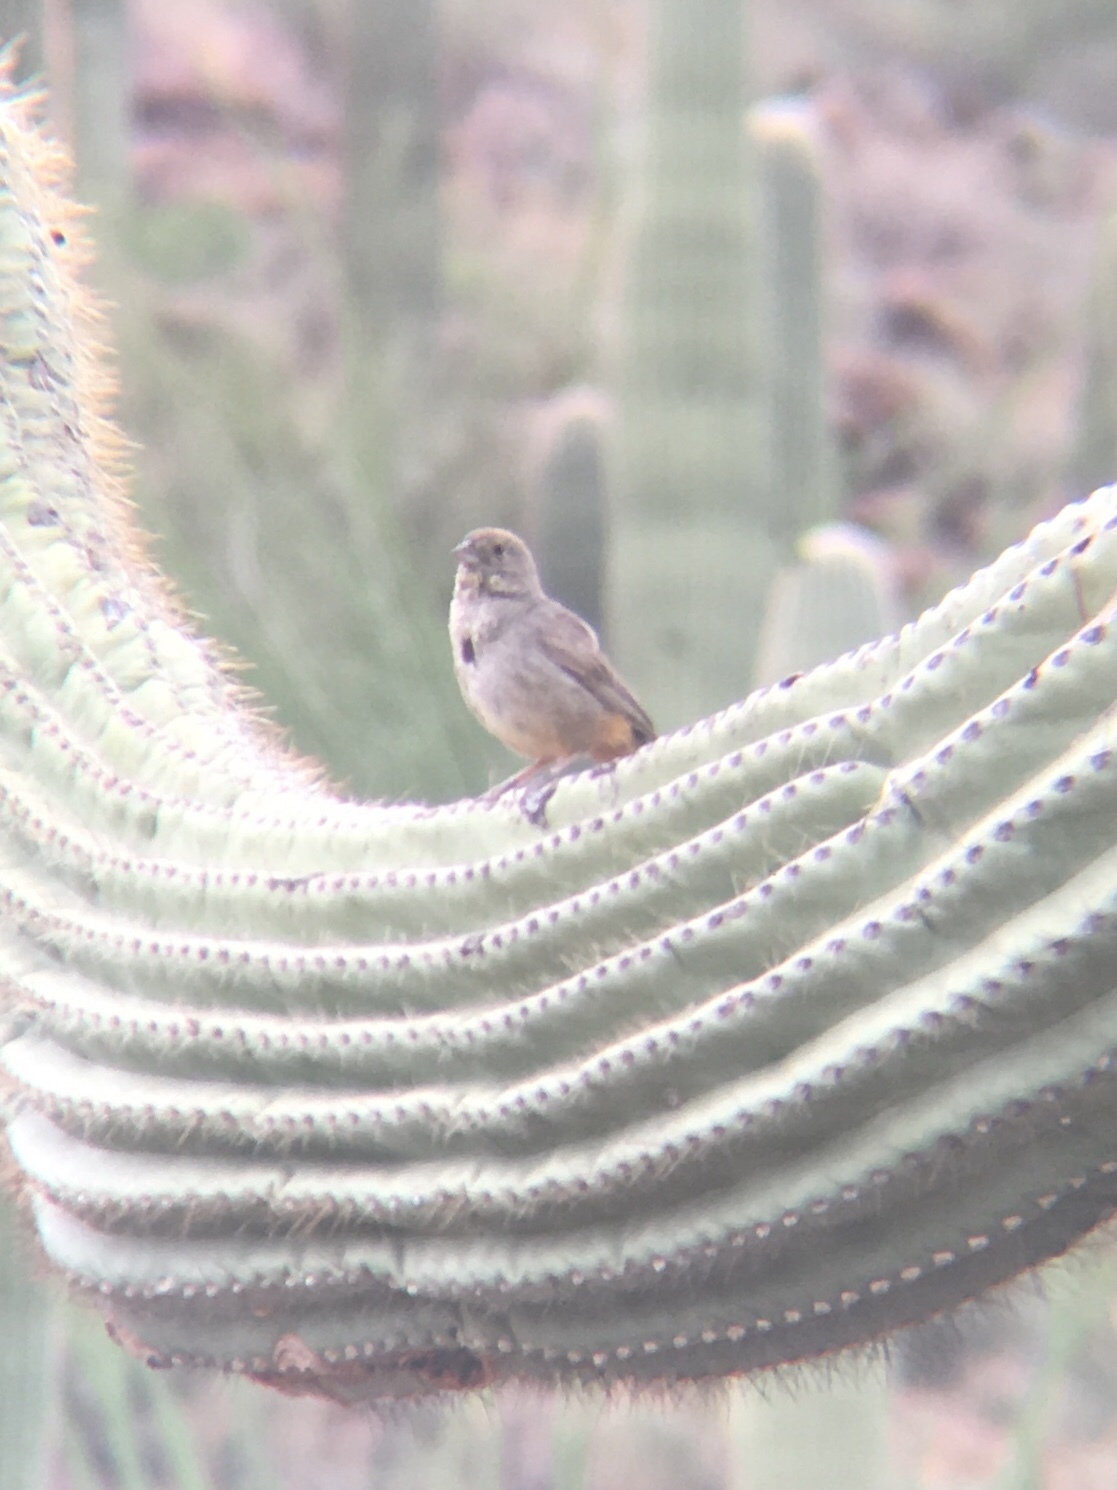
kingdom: Animalia
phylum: Chordata
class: Aves
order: Passeriformes
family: Passerellidae
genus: Melozone
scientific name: Melozone fusca
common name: Canyon towhee
